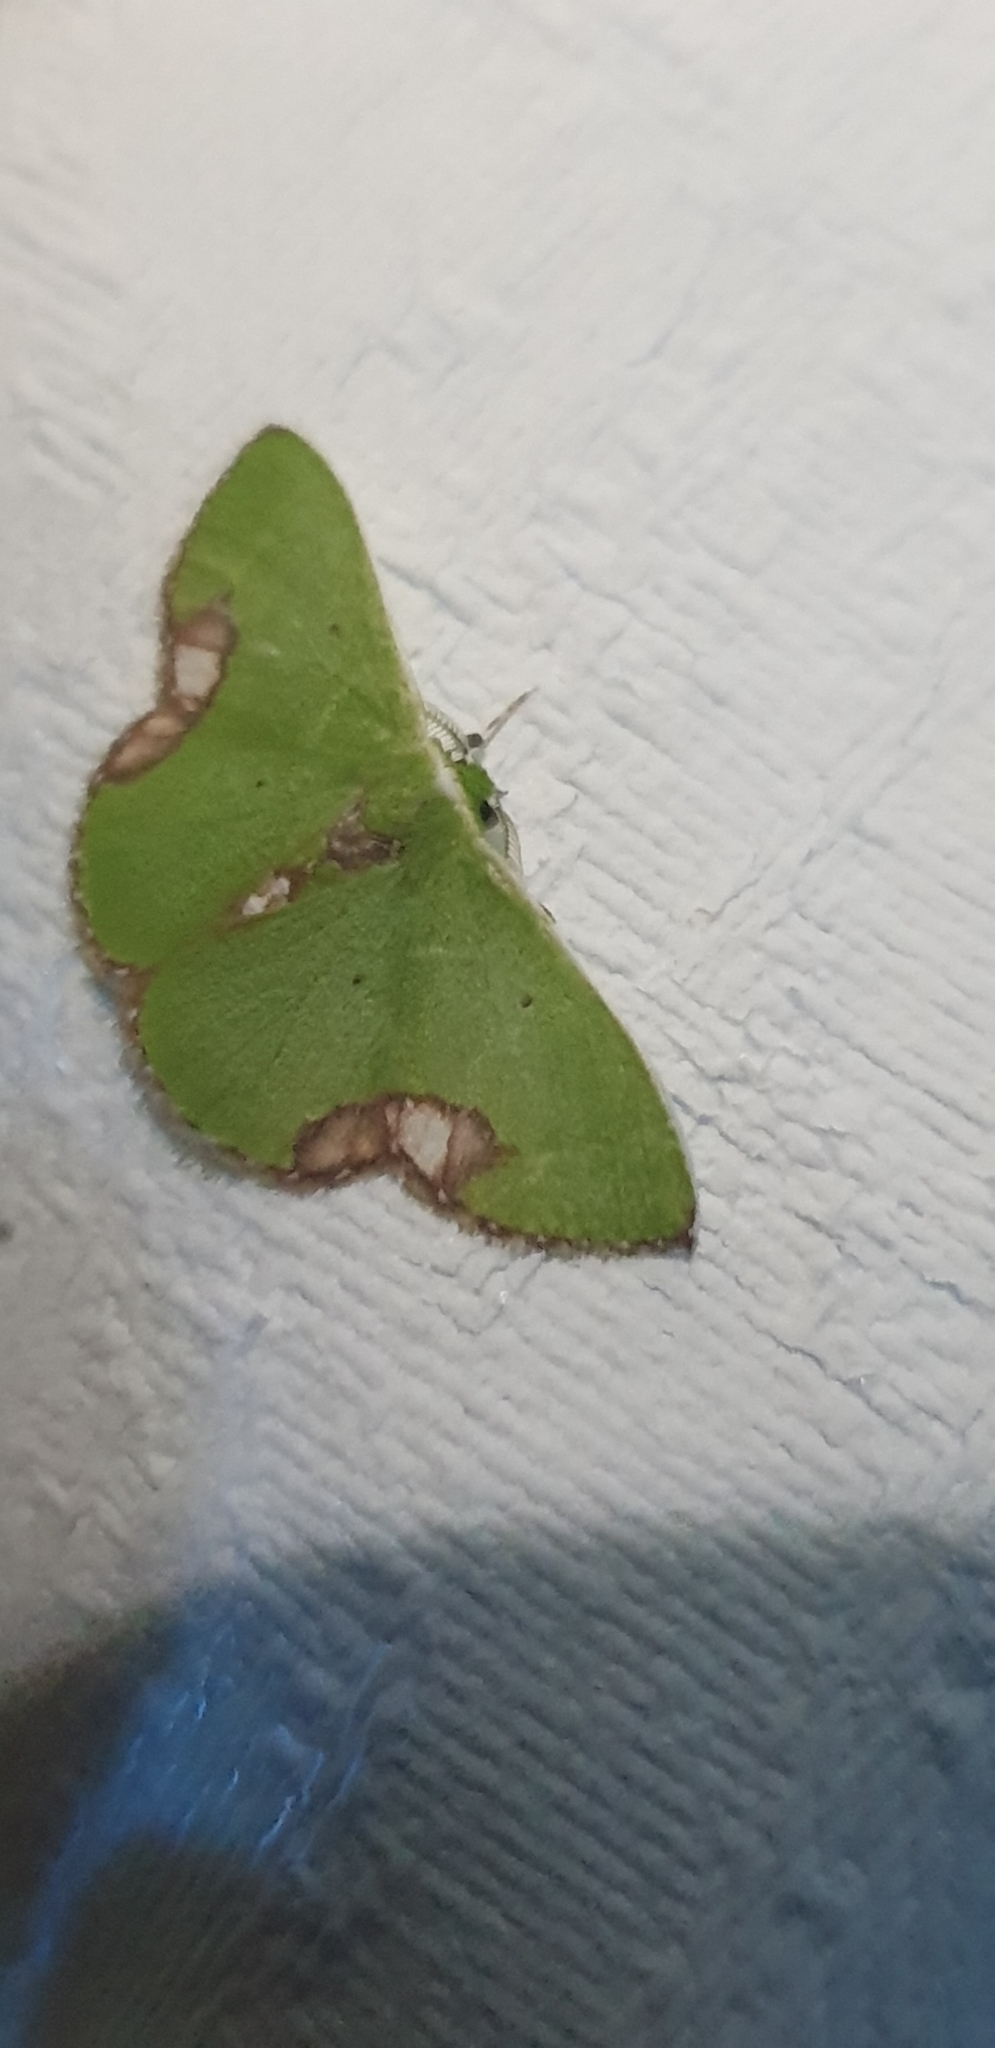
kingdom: Animalia
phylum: Arthropoda
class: Insecta
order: Lepidoptera
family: Geometridae
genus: Comibaena
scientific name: Comibaena mariae
